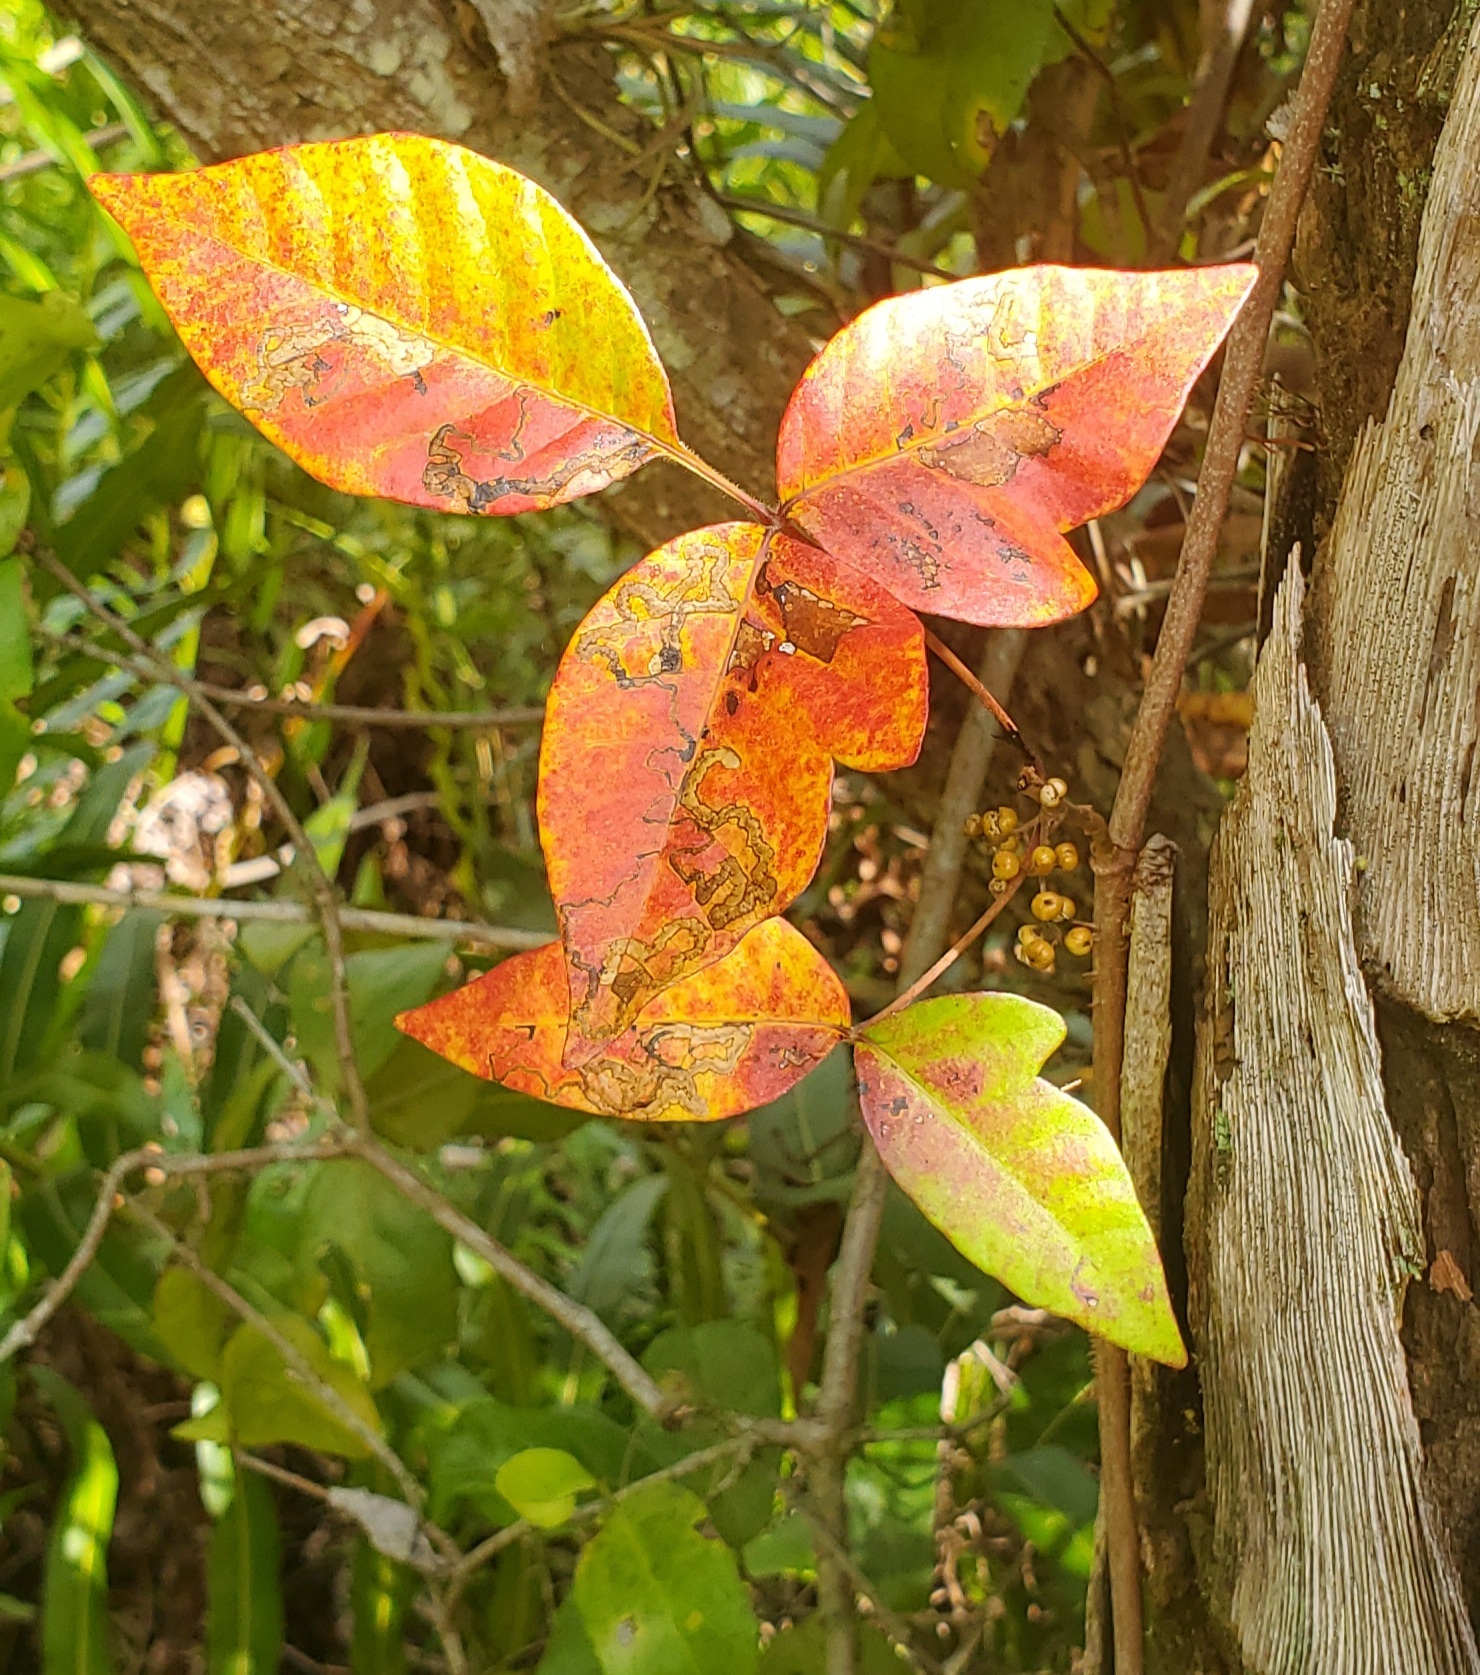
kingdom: Plantae
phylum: Tracheophyta
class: Magnoliopsida
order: Sapindales
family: Anacardiaceae
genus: Toxicodendron
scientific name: Toxicodendron radicans
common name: Poison ivy
